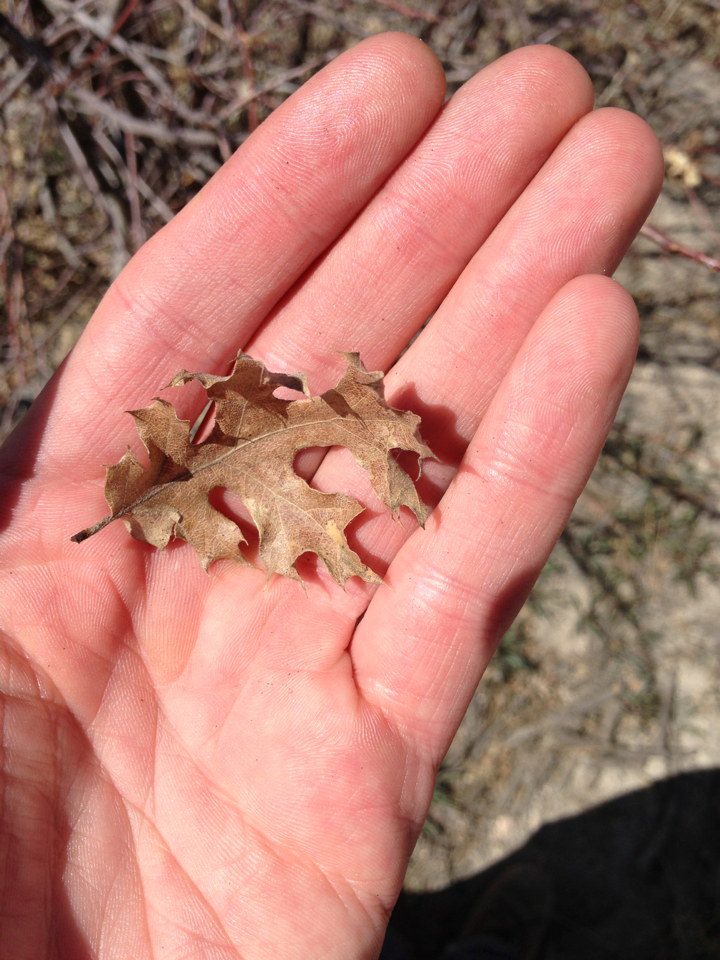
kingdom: Plantae
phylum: Tracheophyta
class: Magnoliopsida
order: Fagales
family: Fagaceae
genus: Quercus
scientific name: Quercus kelloggii
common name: California black oak
